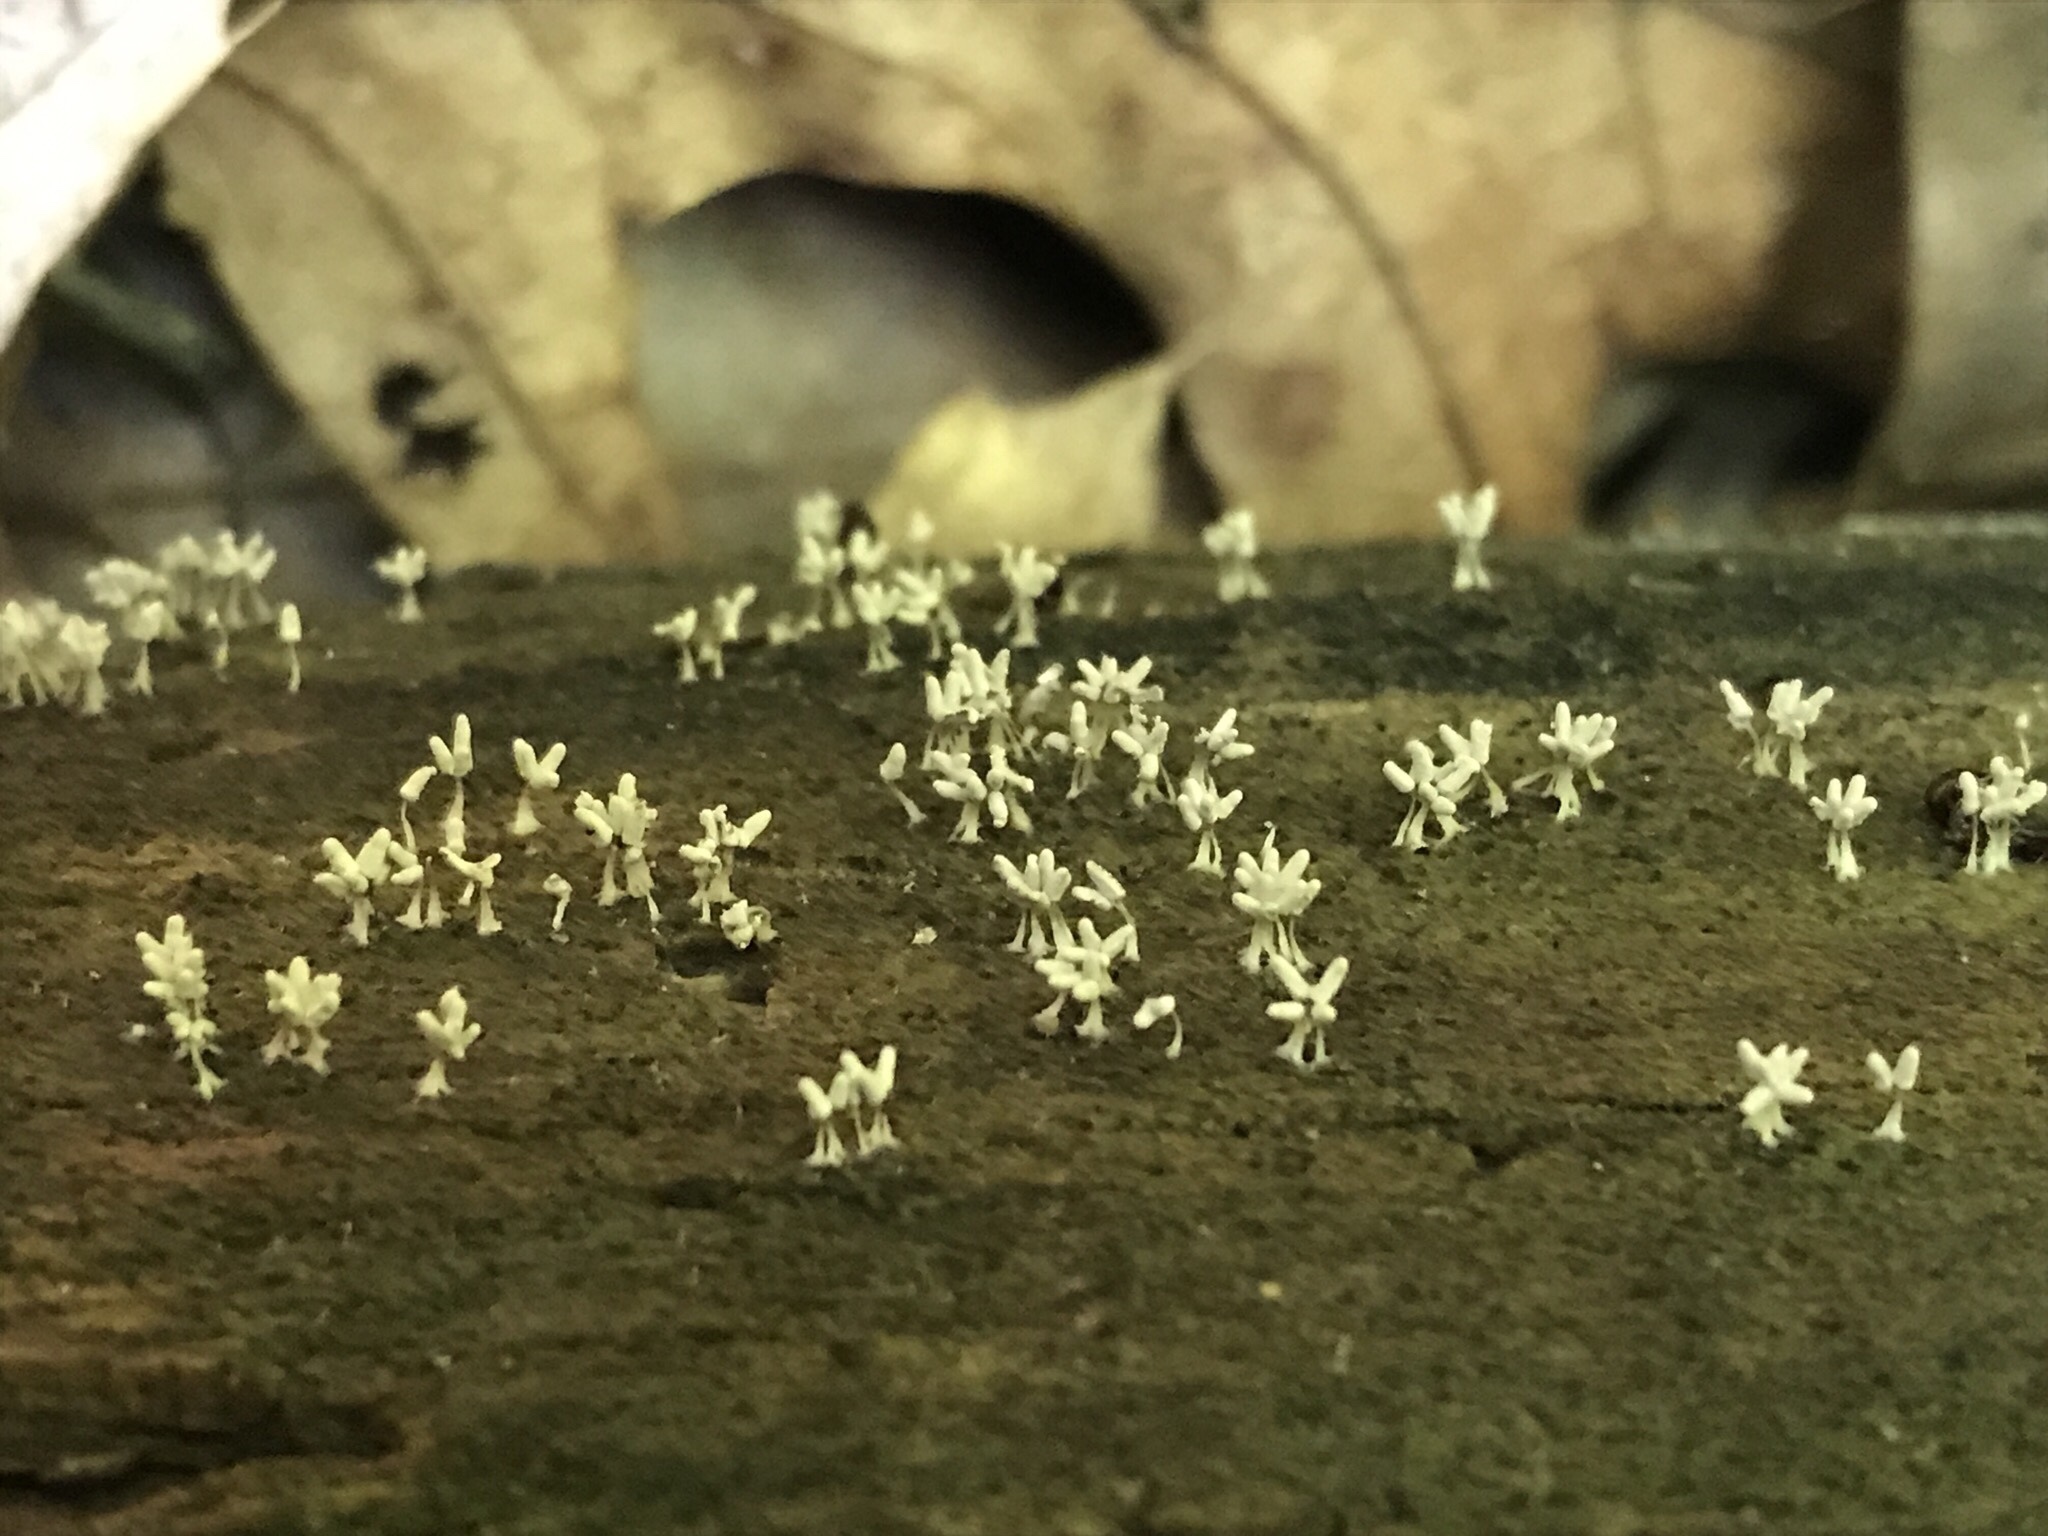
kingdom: Protozoa
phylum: Mycetozoa
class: Myxomycetes
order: Trichiales
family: Arcyriaceae
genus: Arcyria
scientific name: Arcyria cinerea
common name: White carnival candy slime mold
